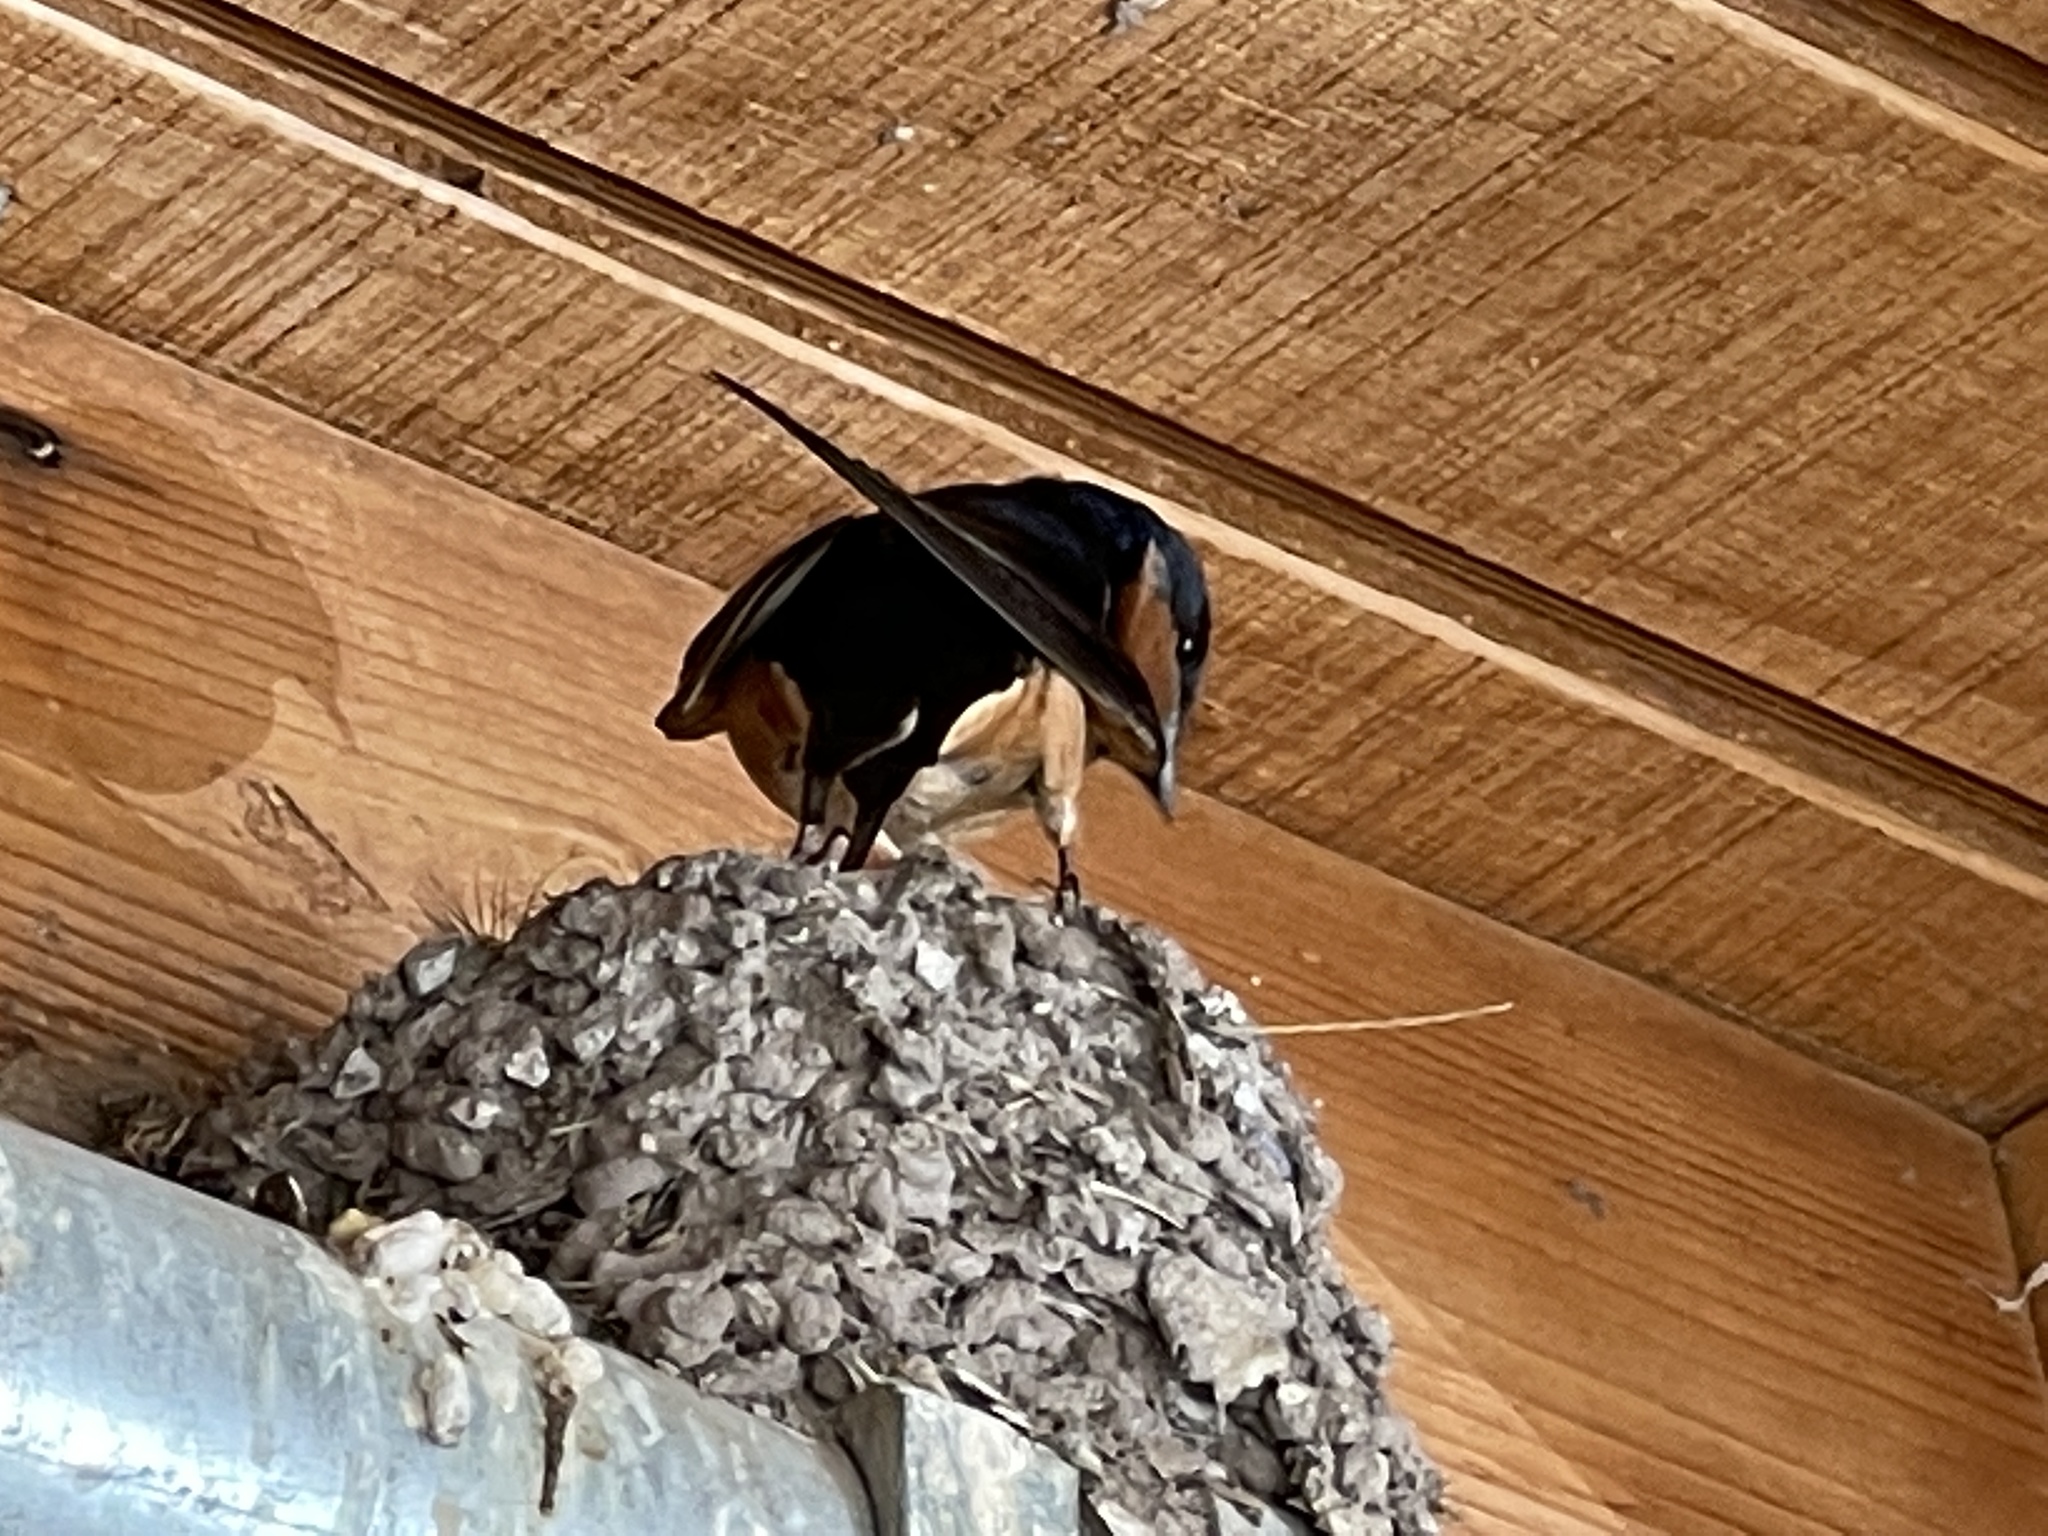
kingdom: Animalia
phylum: Chordata
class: Aves
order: Passeriformes
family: Hirundinidae
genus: Hirundo
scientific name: Hirundo rustica
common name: Barn swallow
